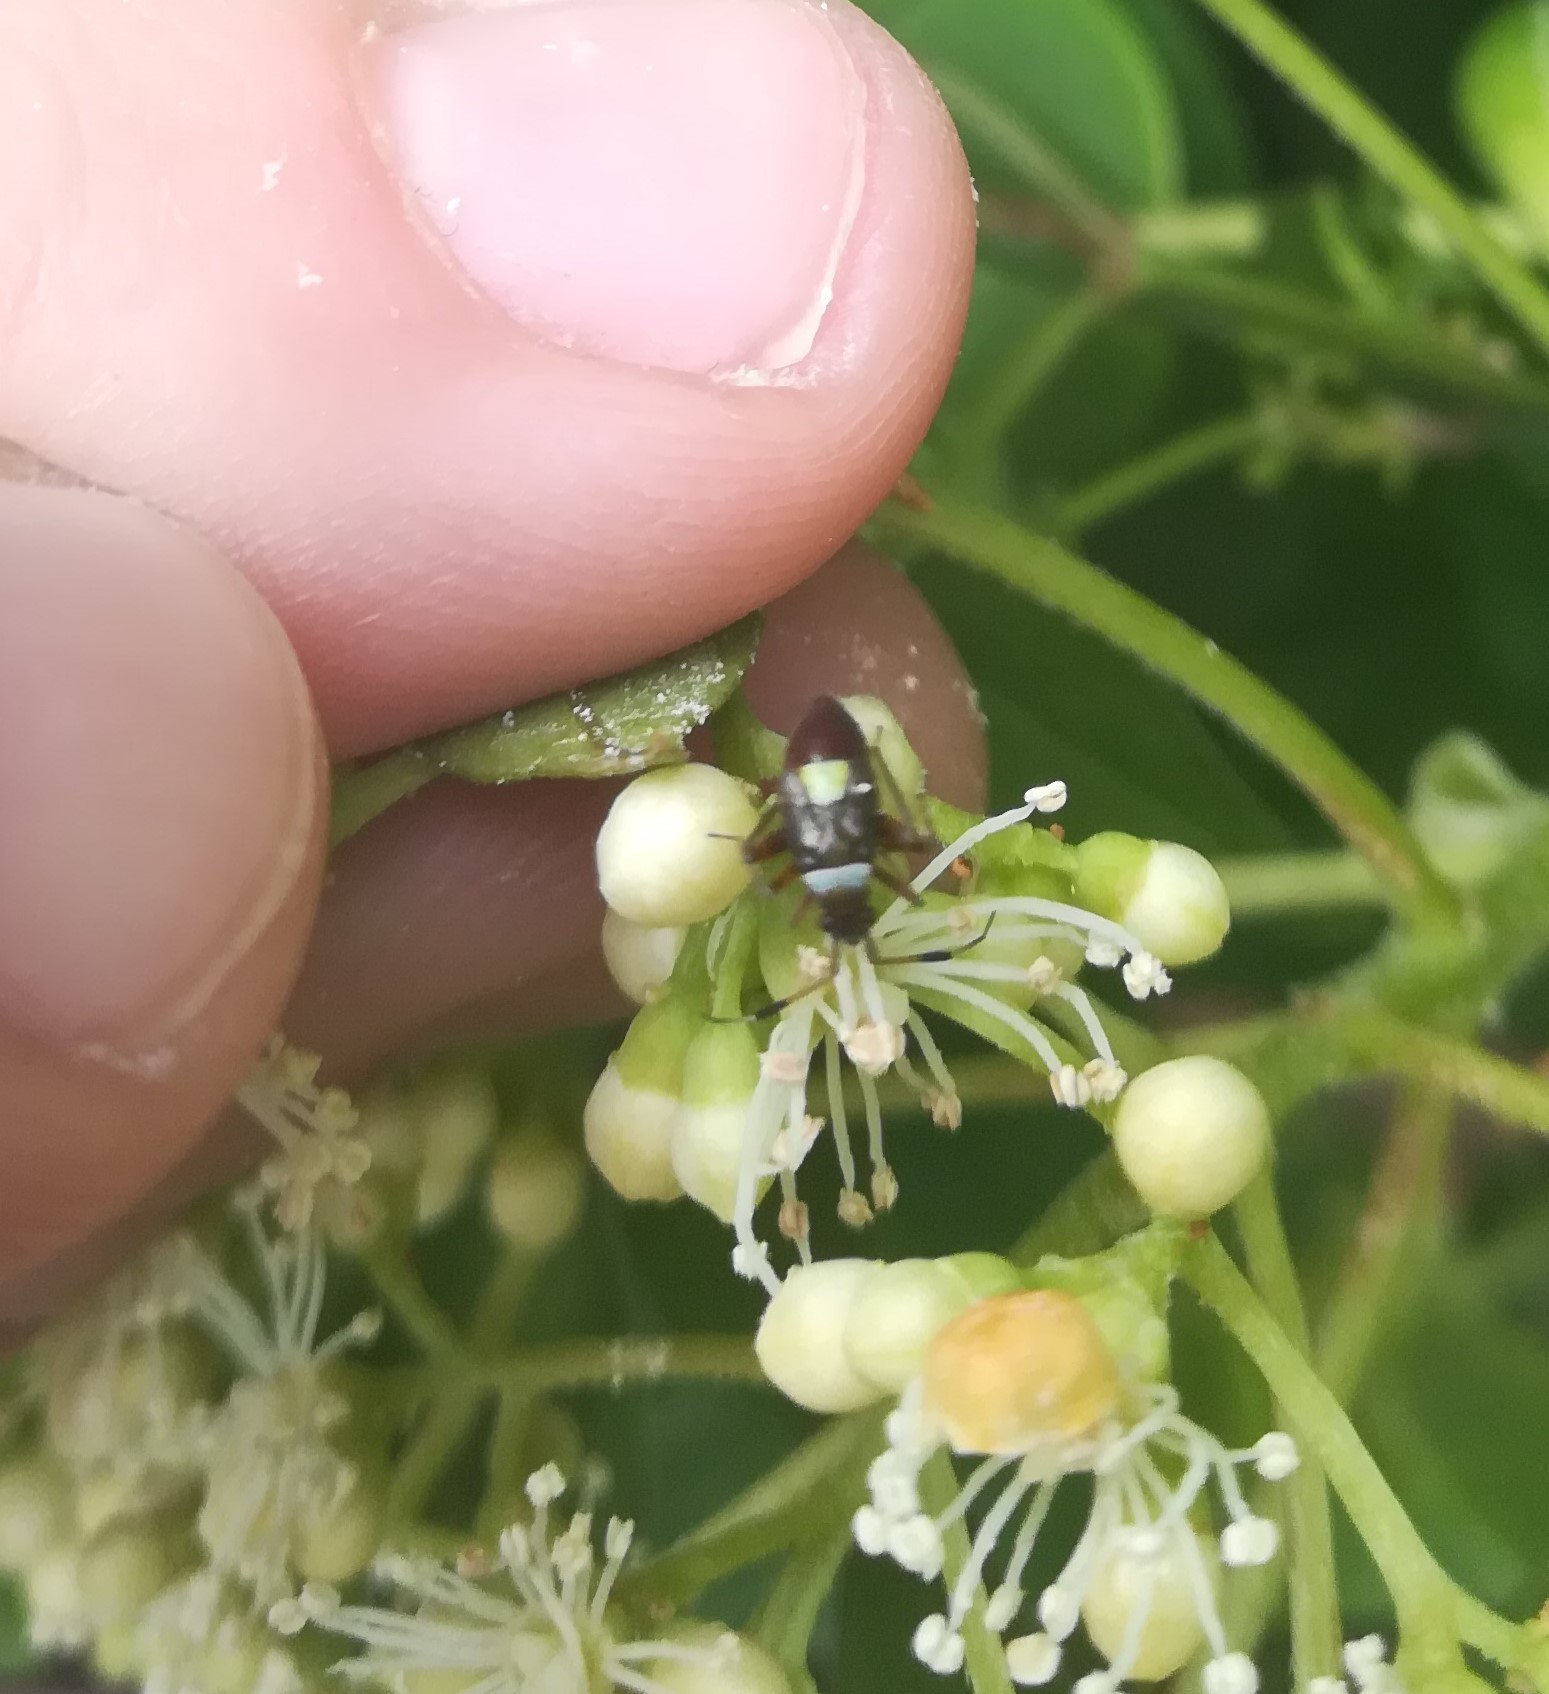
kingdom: Animalia
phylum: Arthropoda
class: Insecta
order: Hemiptera
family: Miridae
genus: Closterotomus
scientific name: Closterotomus biclavatus
